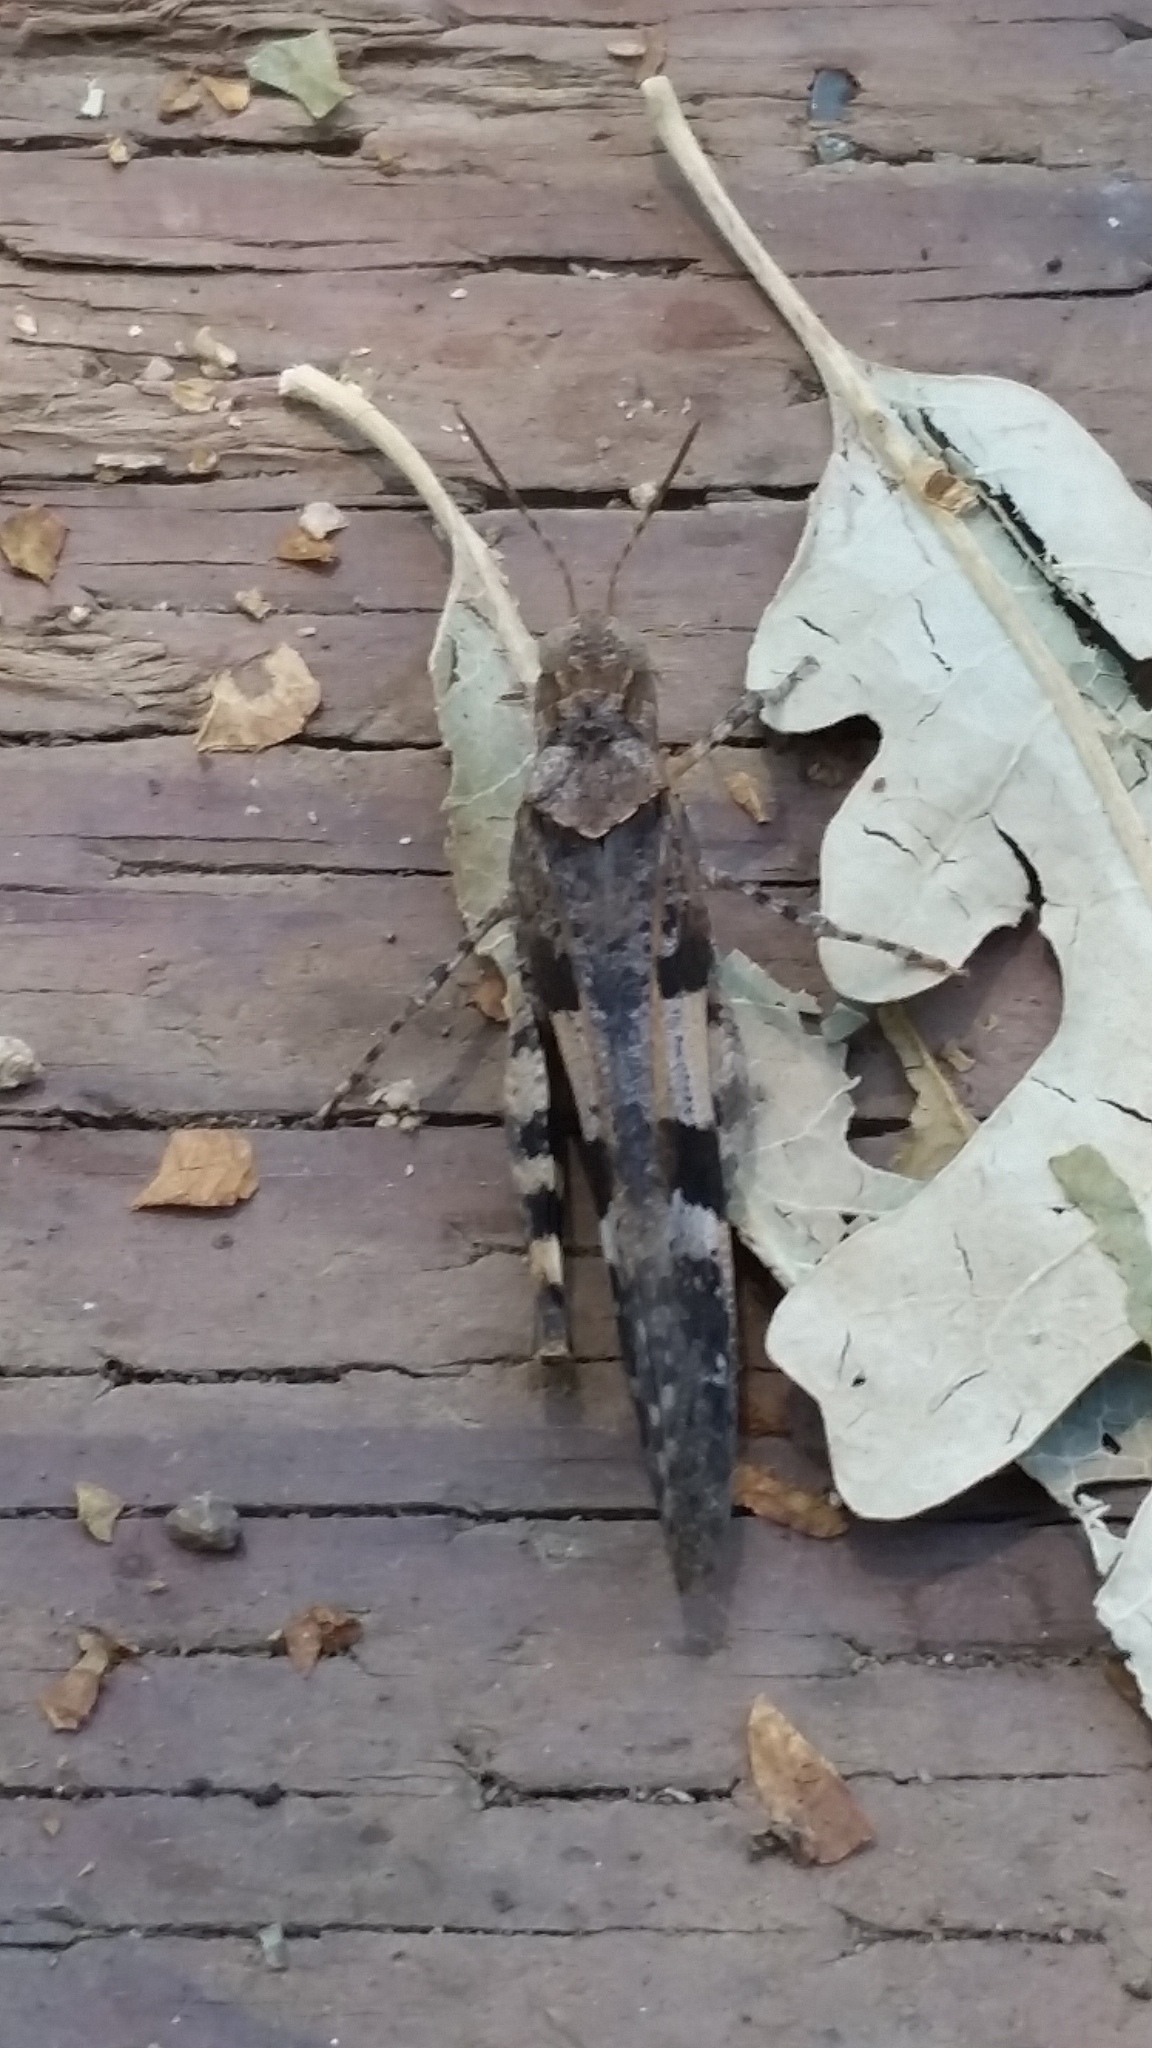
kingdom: Animalia
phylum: Arthropoda
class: Insecta
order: Orthoptera
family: Acrididae
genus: Trimerotropis
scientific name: Trimerotropis fontana
